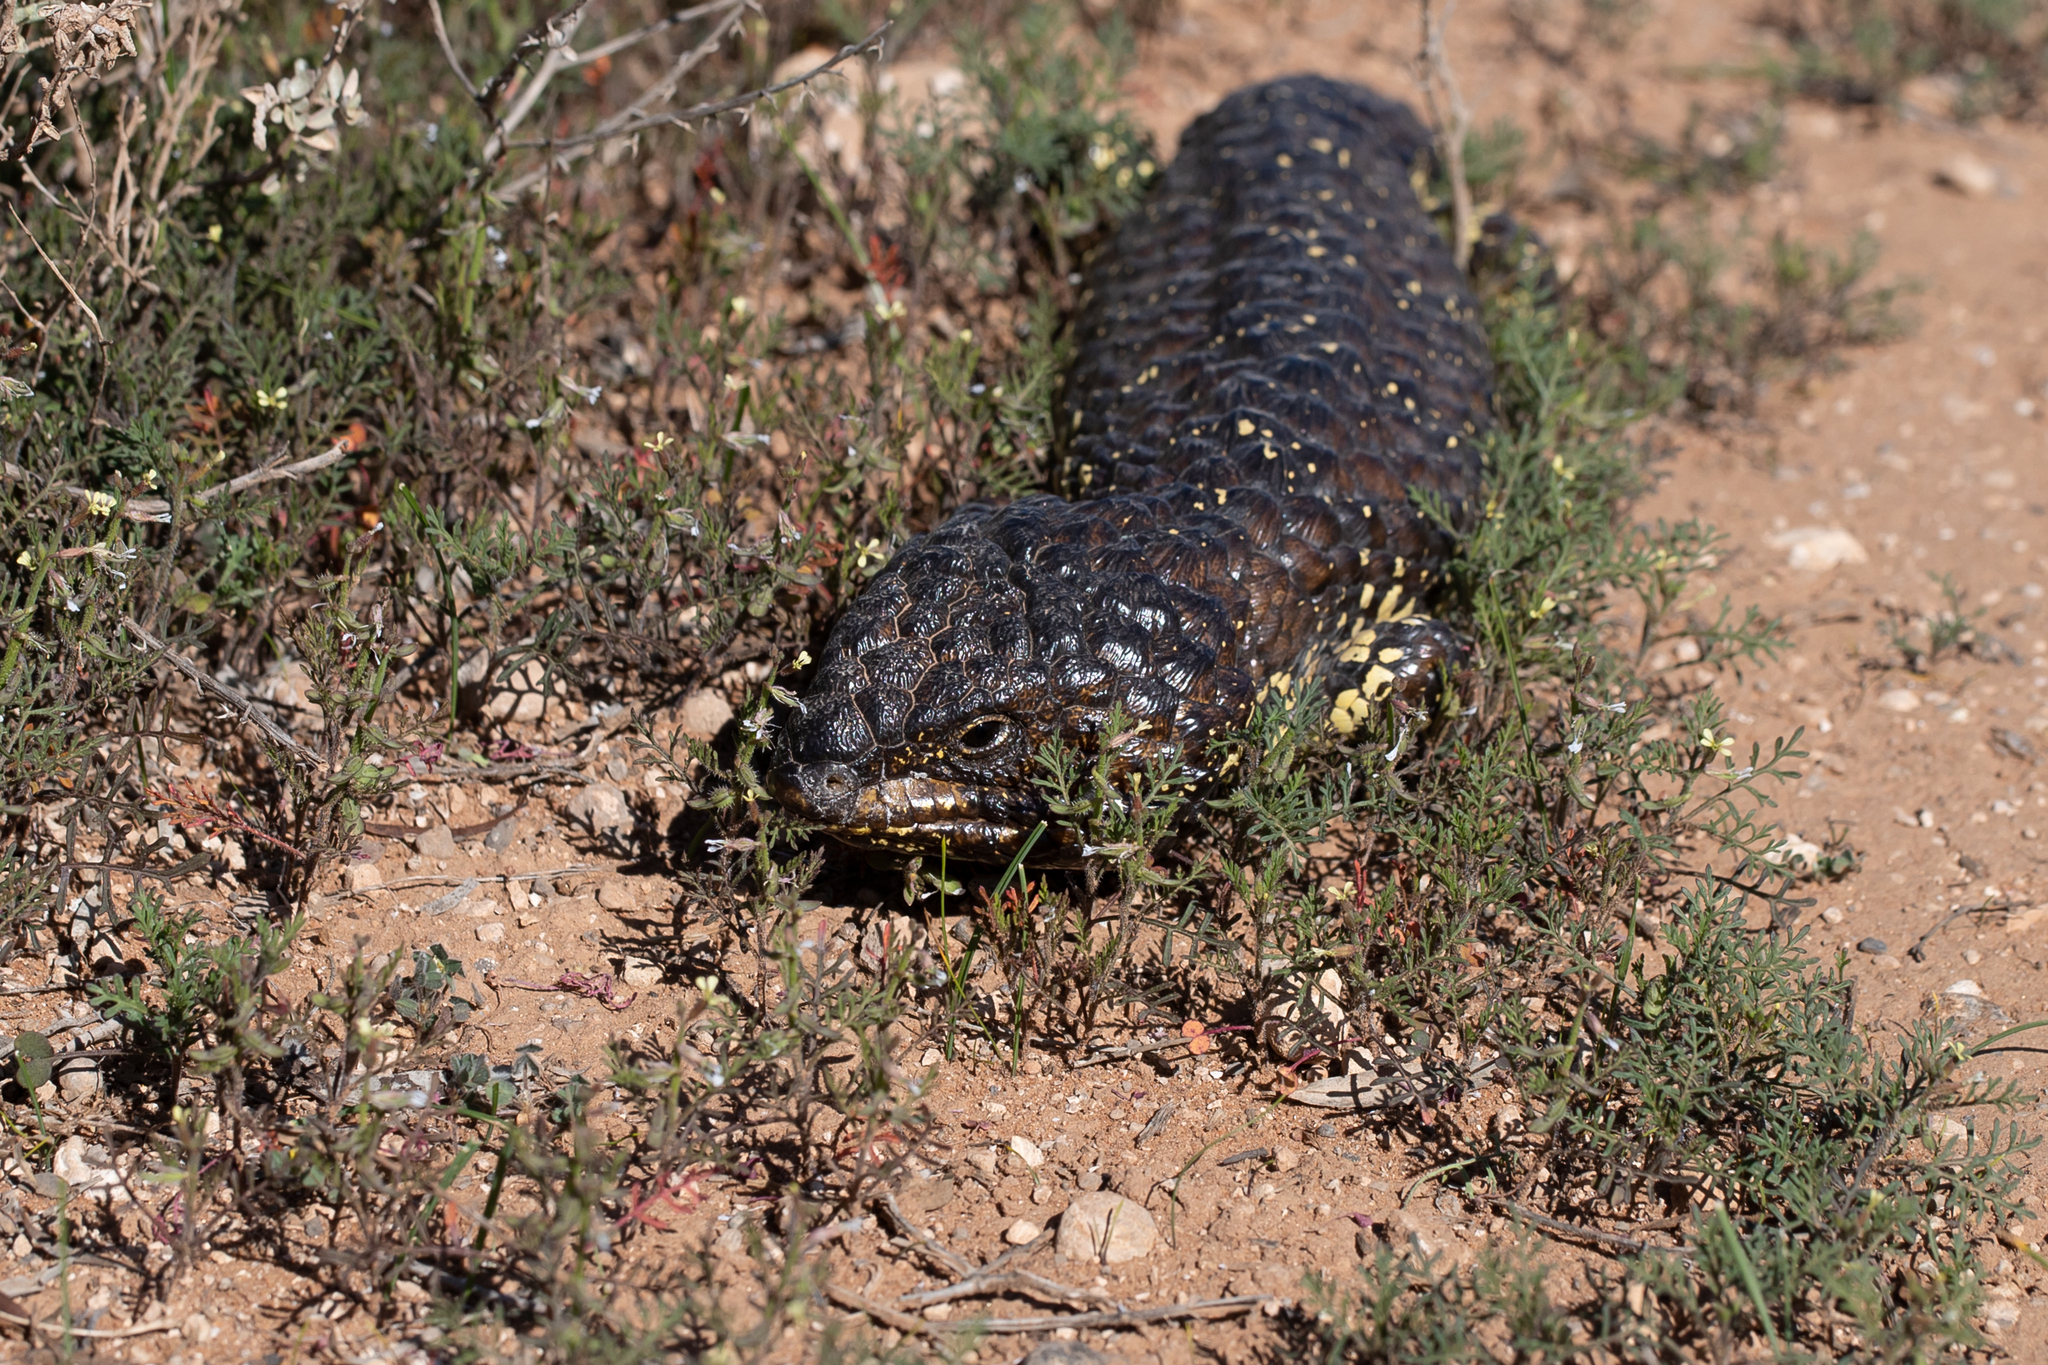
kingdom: Animalia
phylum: Chordata
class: Squamata
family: Scincidae
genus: Tiliqua
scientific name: Tiliqua rugosa
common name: Pinecone lizard
